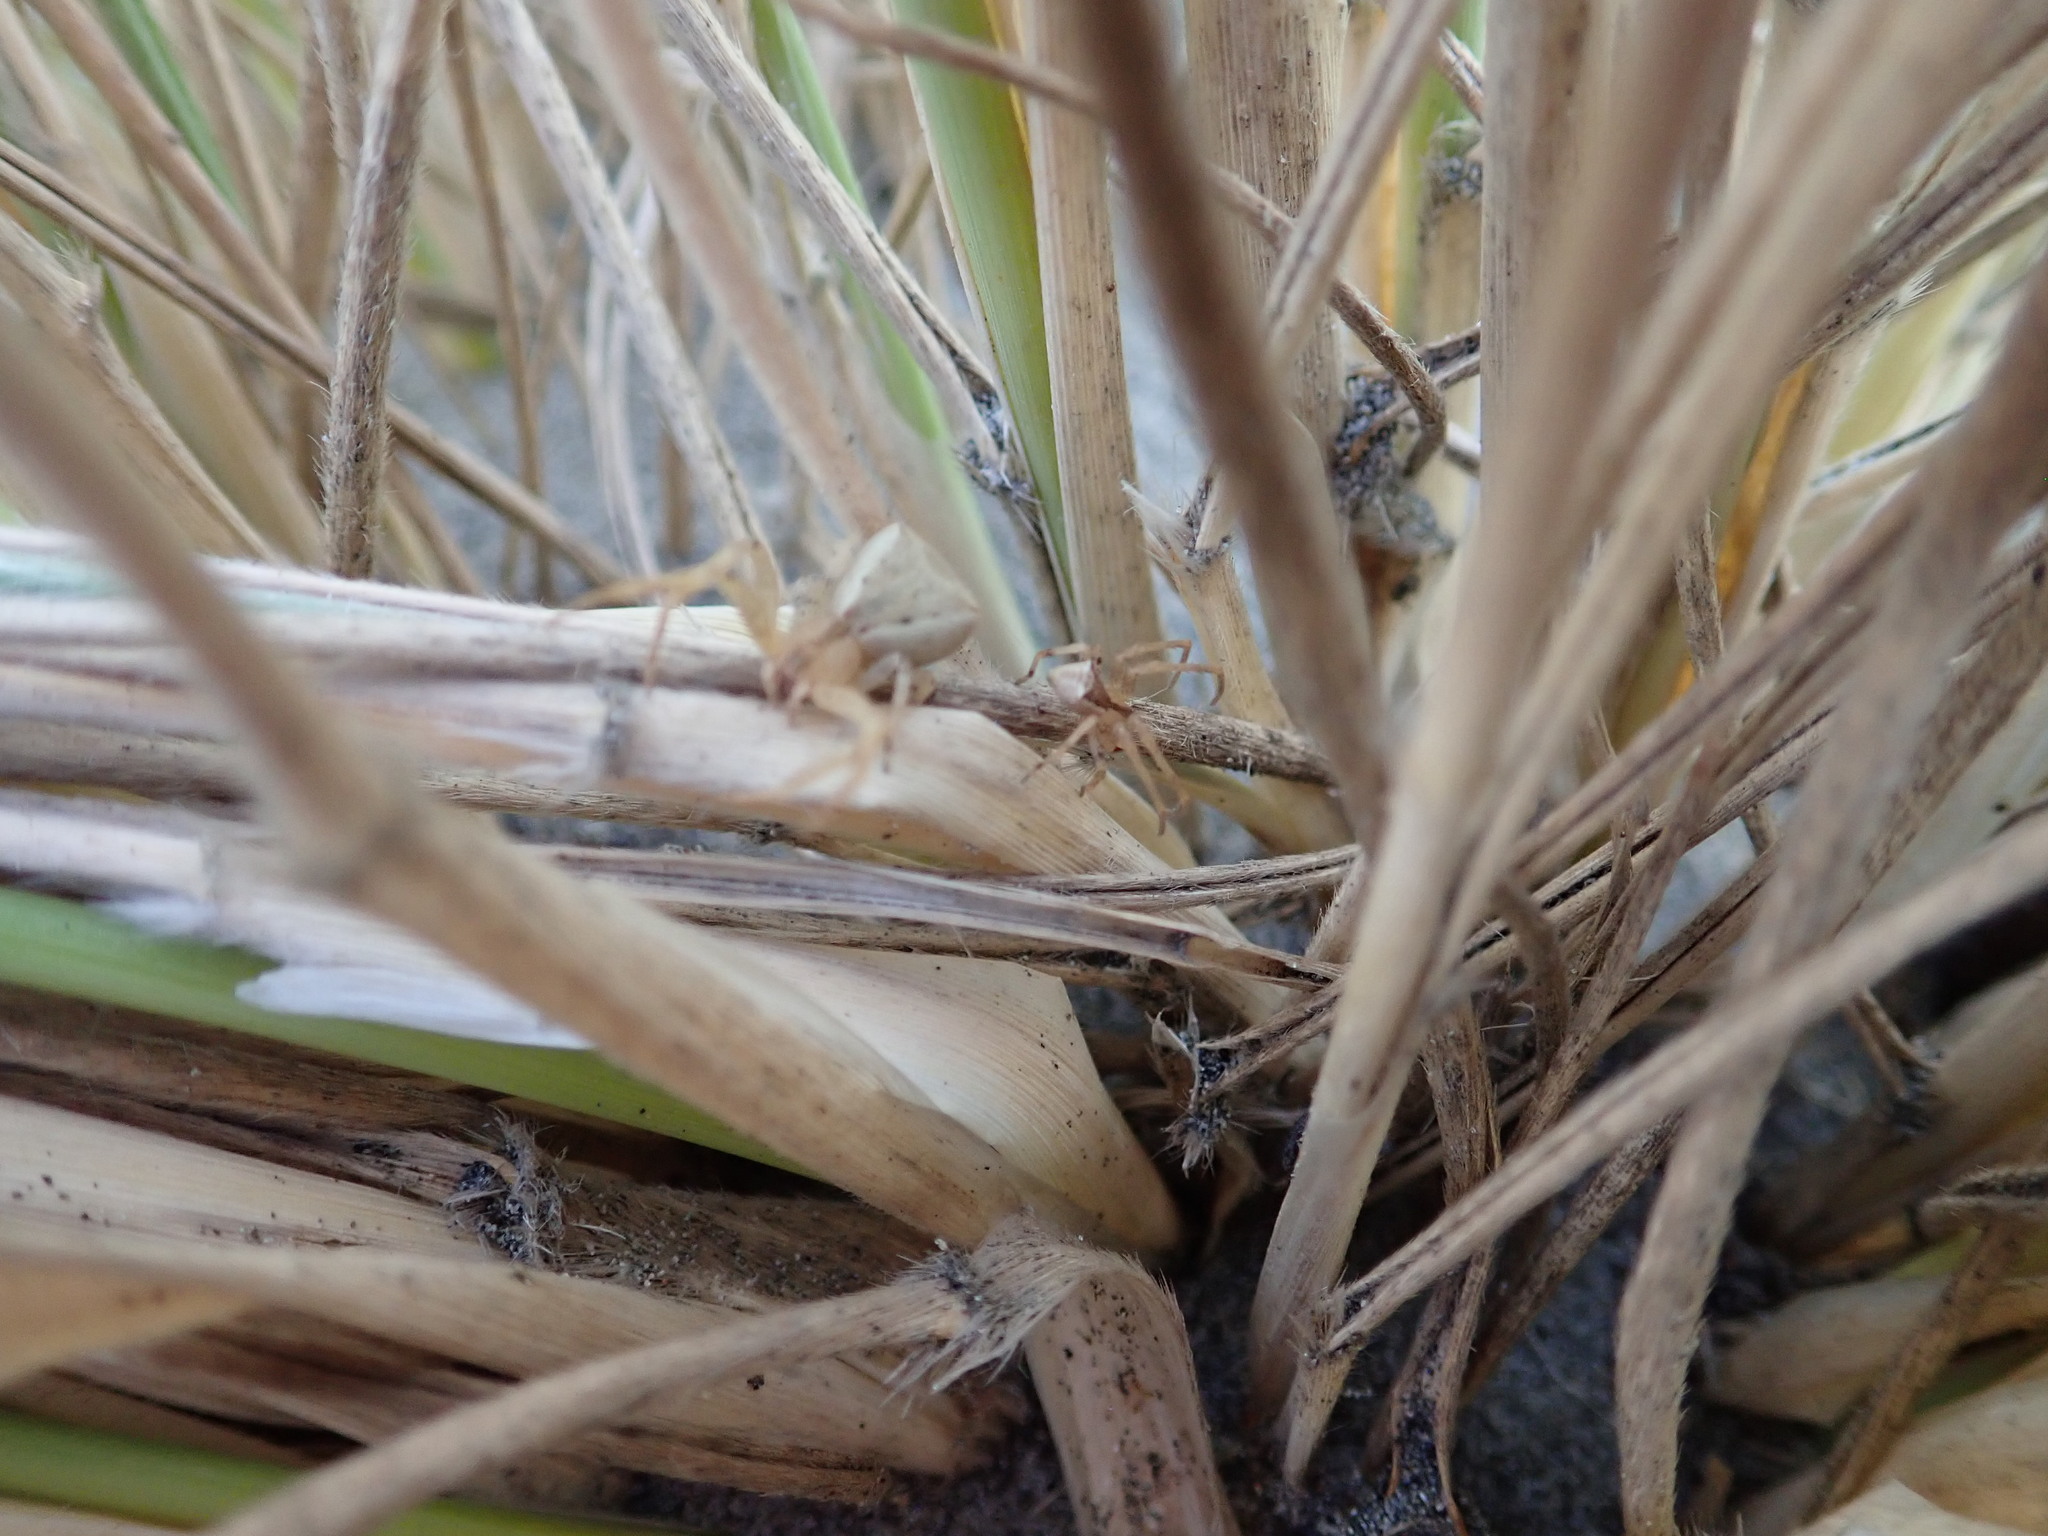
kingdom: Animalia
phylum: Arthropoda
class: Arachnida
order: Araneae
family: Thomisidae
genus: Sidymella
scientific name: Sidymella trapezia
